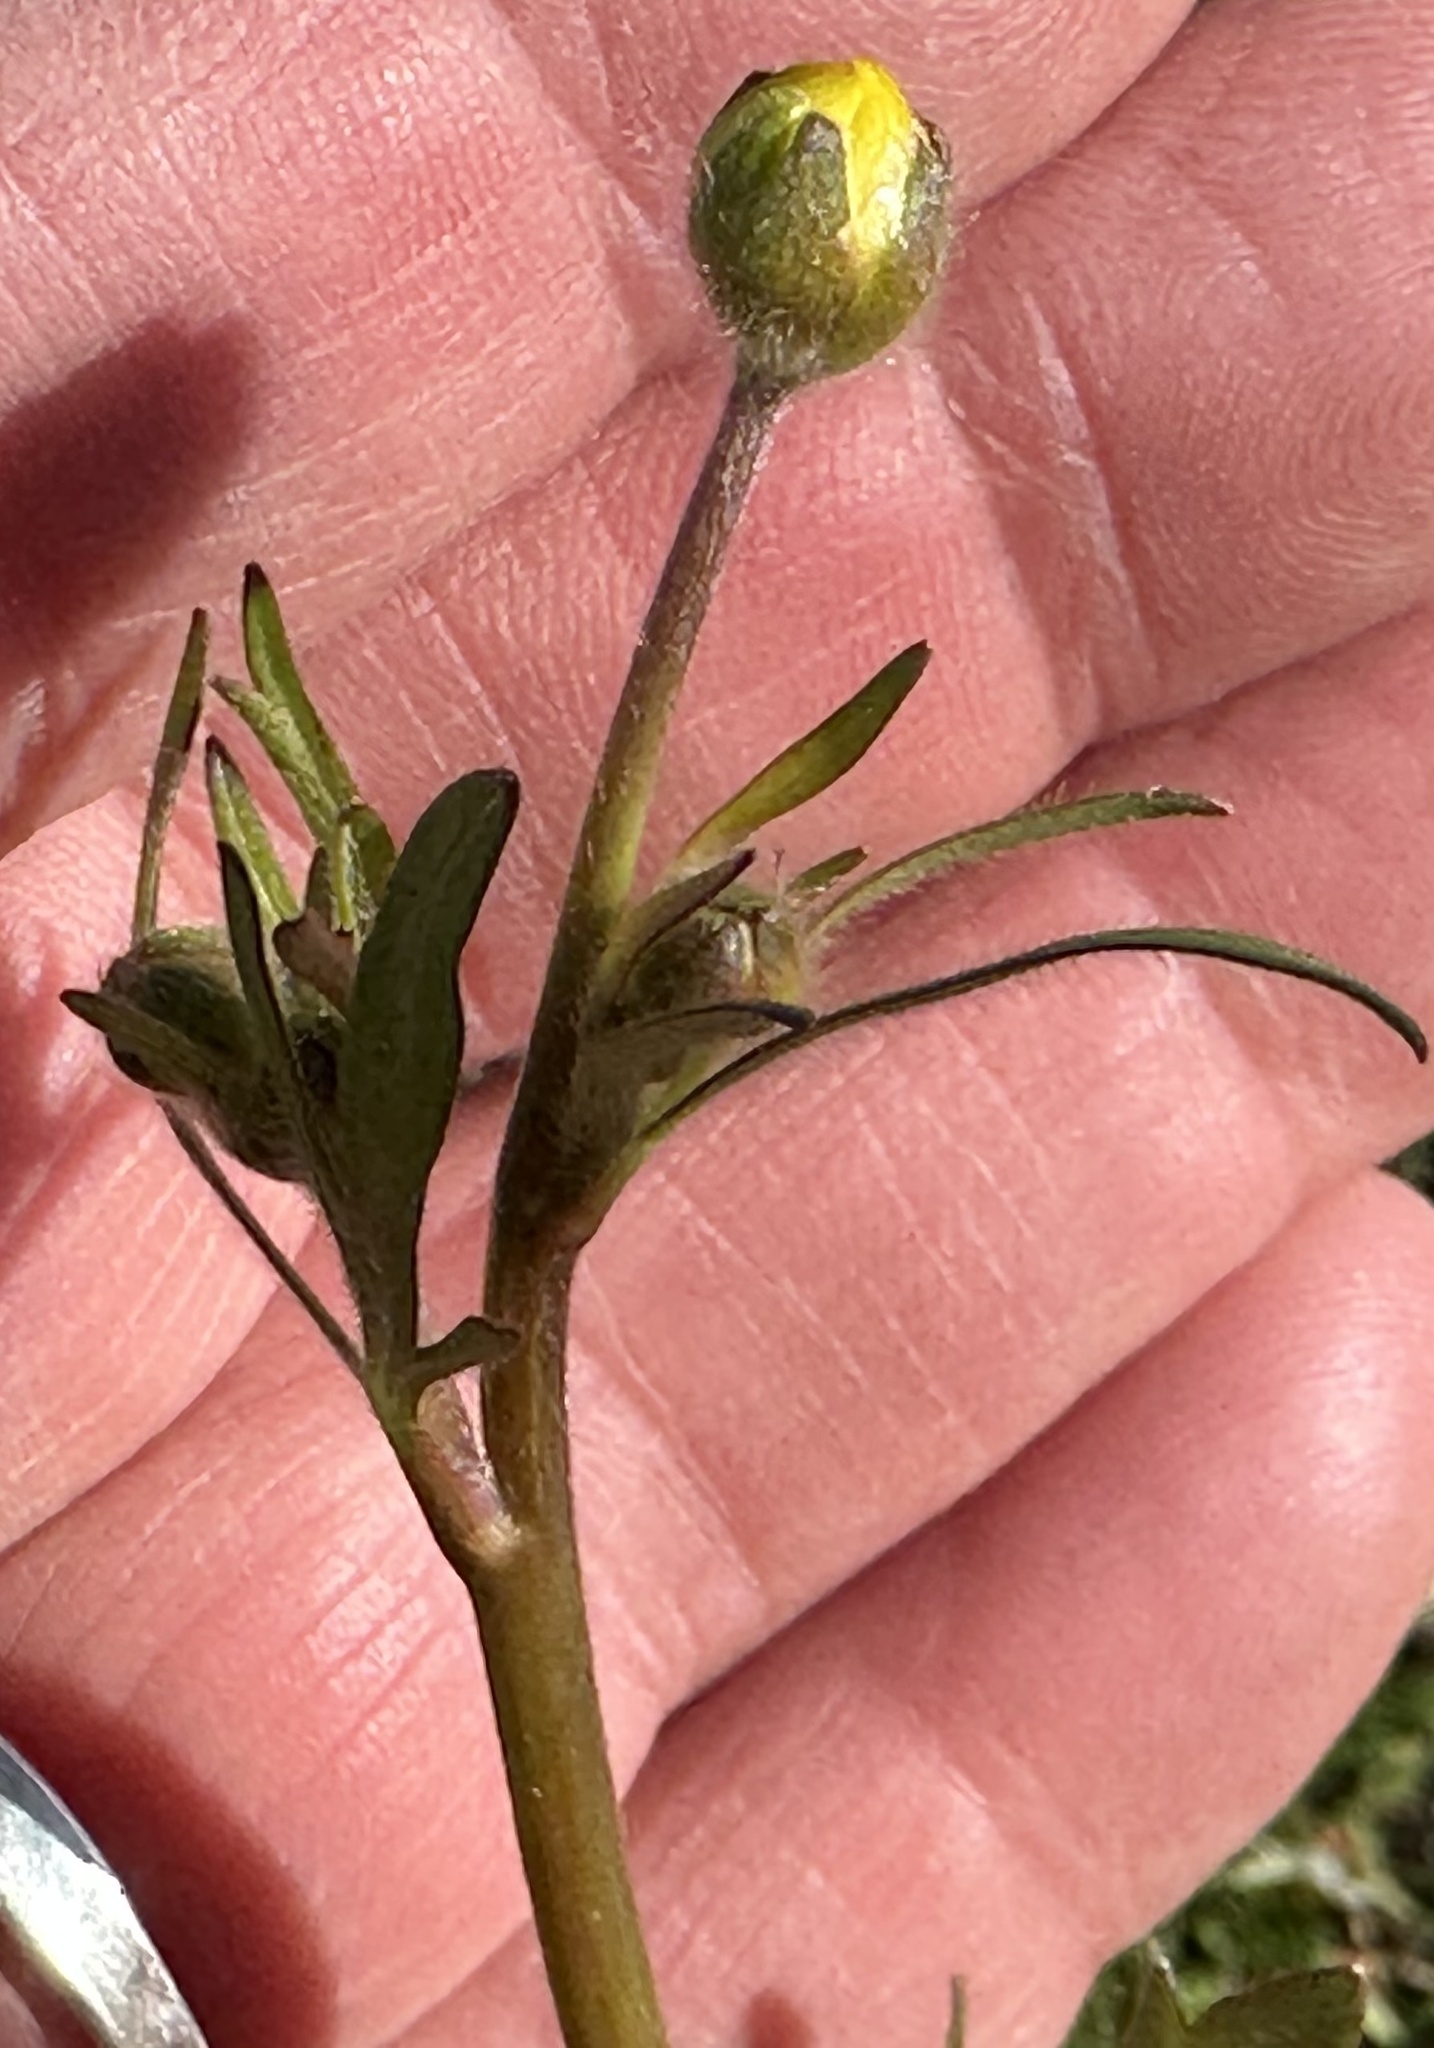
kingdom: Plantae
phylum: Tracheophyta
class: Magnoliopsida
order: Ranunculales
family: Ranunculaceae
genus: Ranunculus
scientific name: Ranunculus californicus
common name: California buttercup
